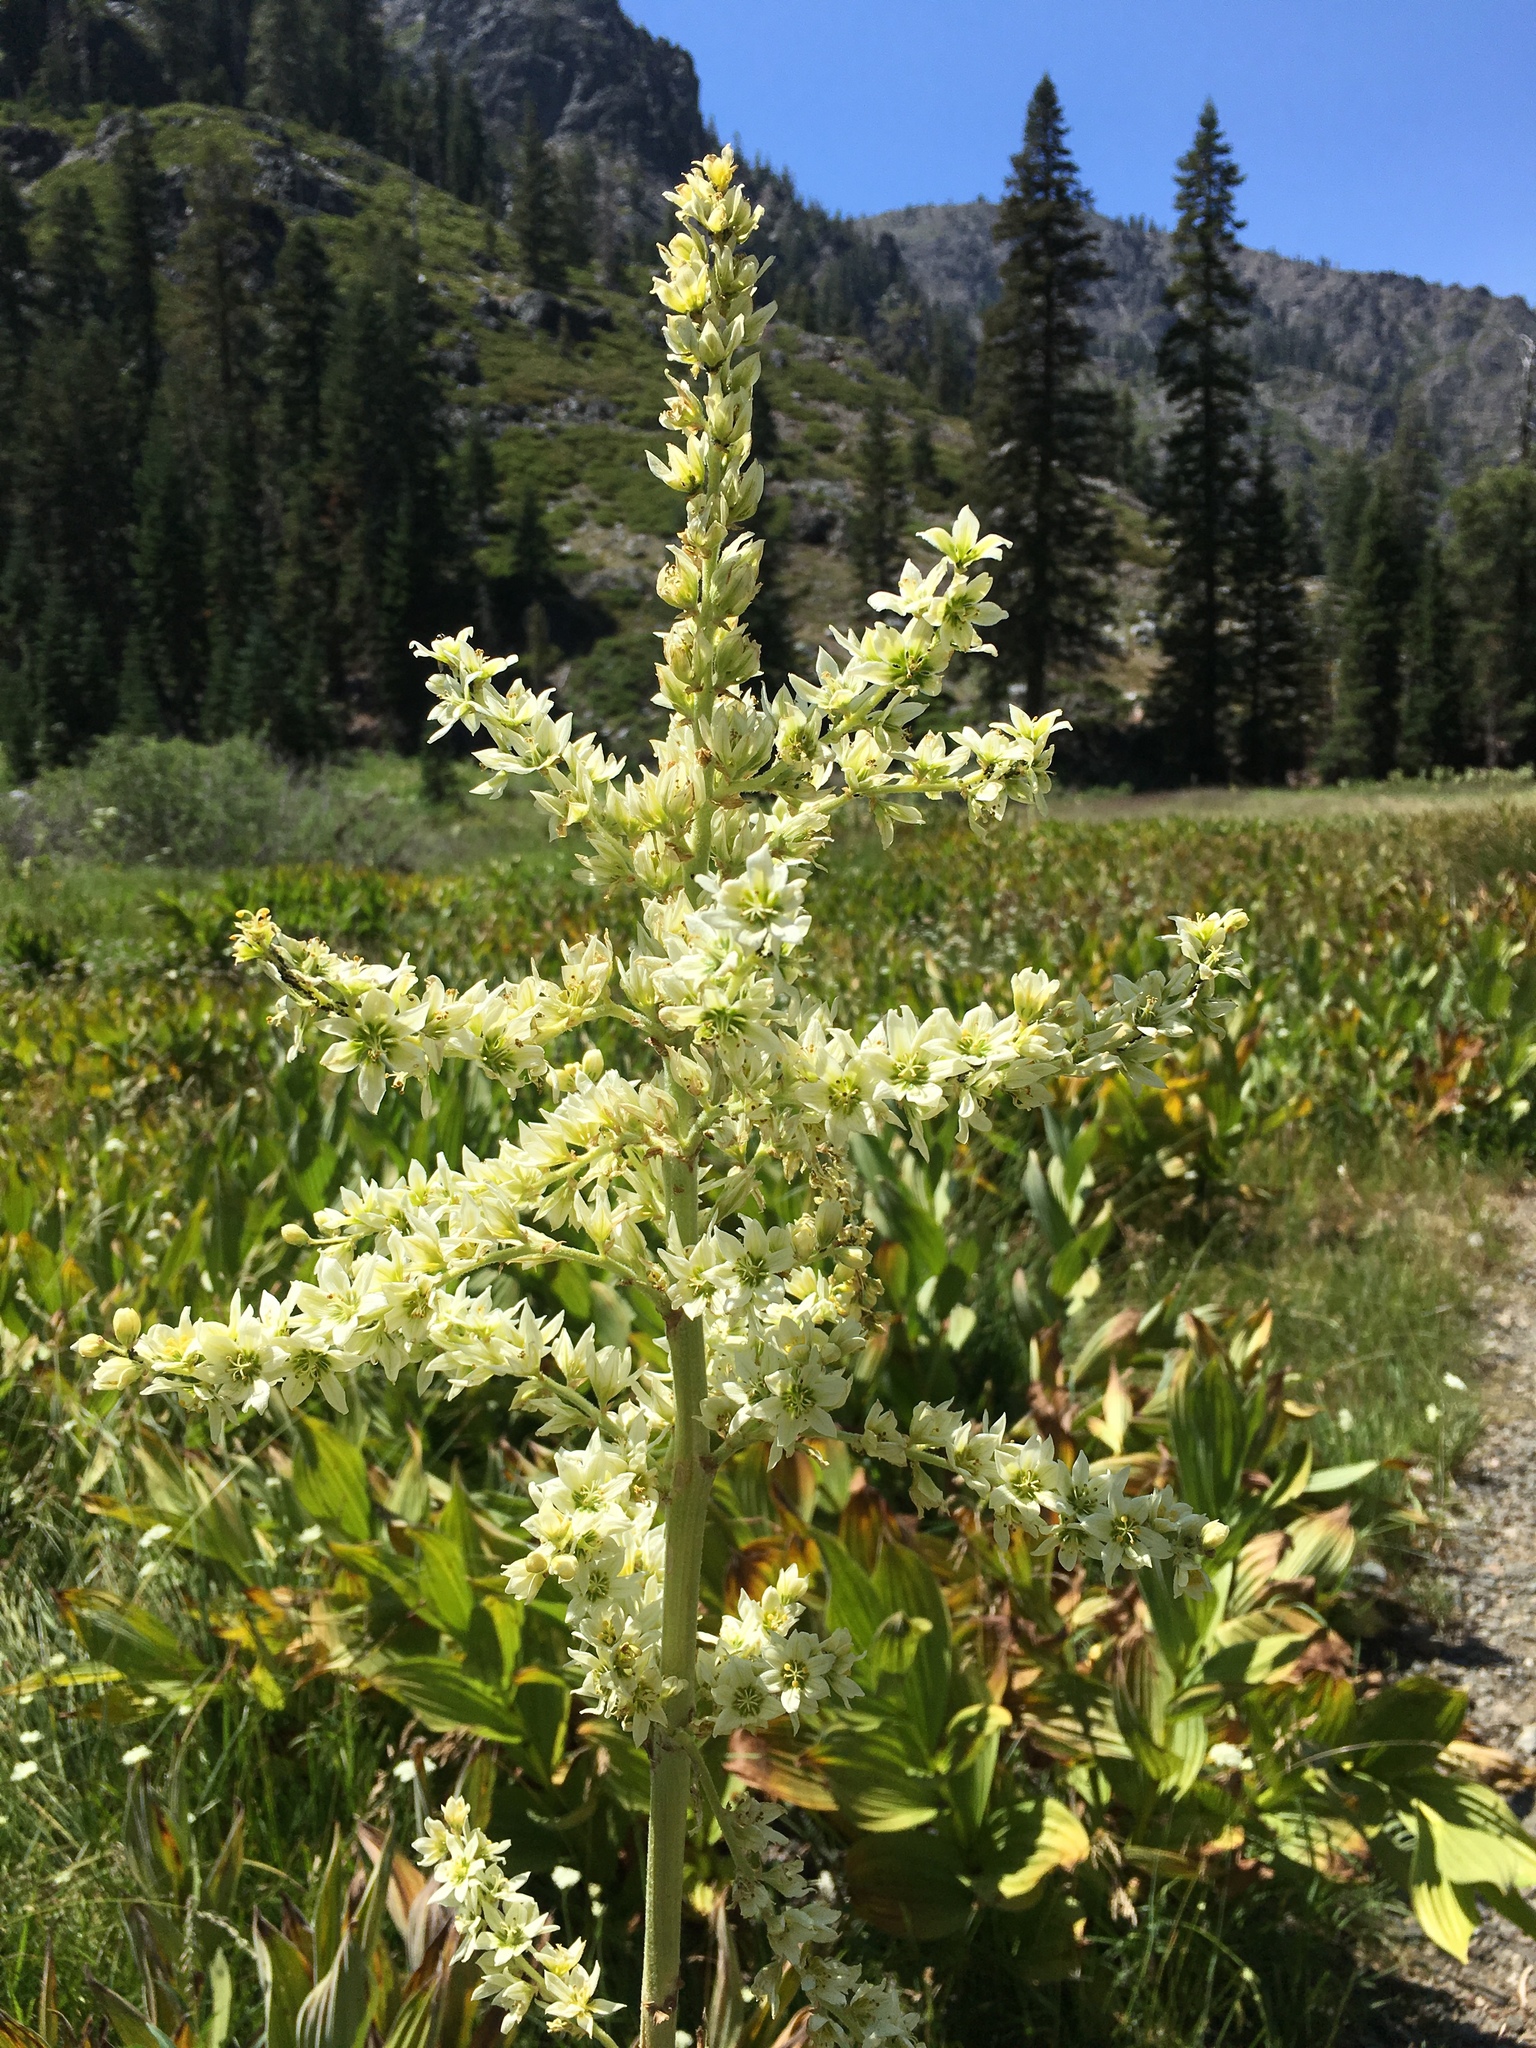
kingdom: Plantae
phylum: Tracheophyta
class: Liliopsida
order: Liliales
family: Melanthiaceae
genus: Veratrum
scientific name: Veratrum californicum
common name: California veratrum
